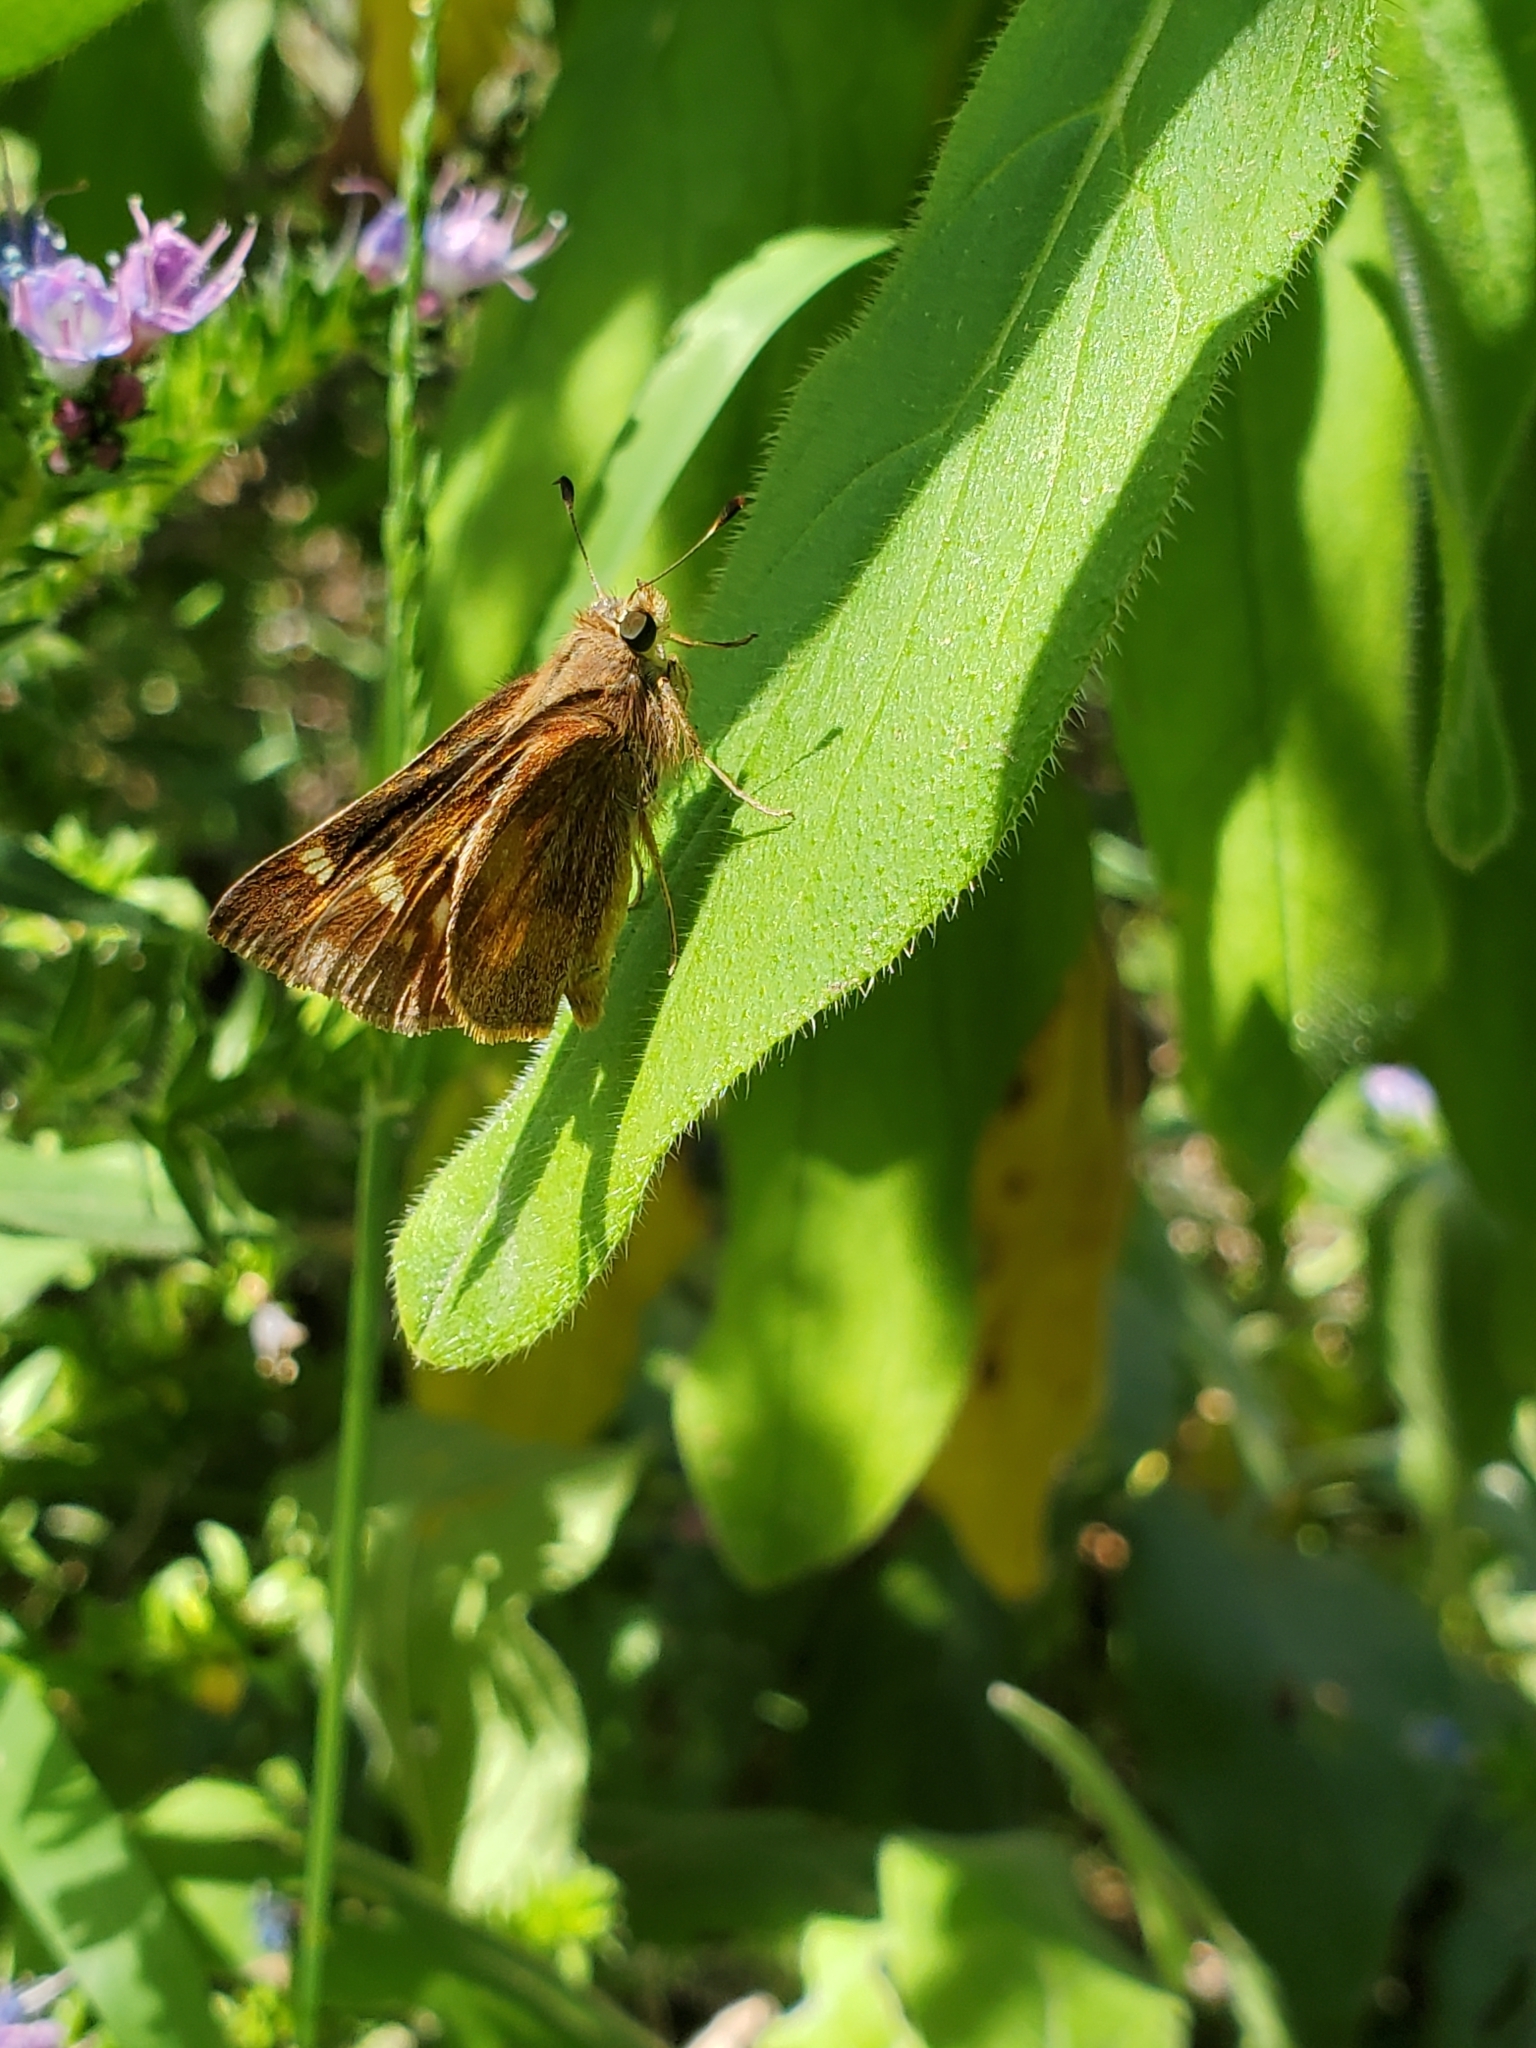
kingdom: Animalia
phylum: Arthropoda
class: Insecta
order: Lepidoptera
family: Hesperiidae
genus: Lon
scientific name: Lon melane
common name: Umber skipper
